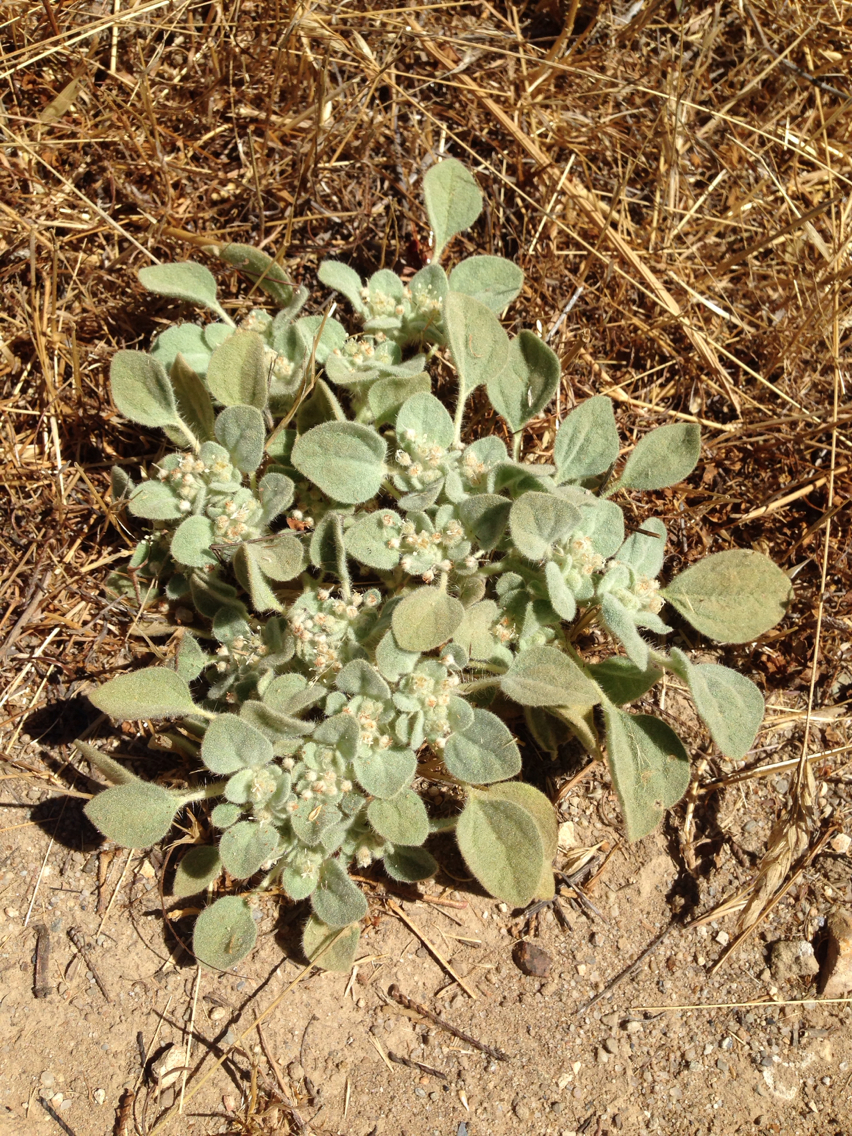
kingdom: Plantae
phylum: Tracheophyta
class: Magnoliopsida
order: Malpighiales
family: Euphorbiaceae
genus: Croton
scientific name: Croton setiger
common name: Dove weed
